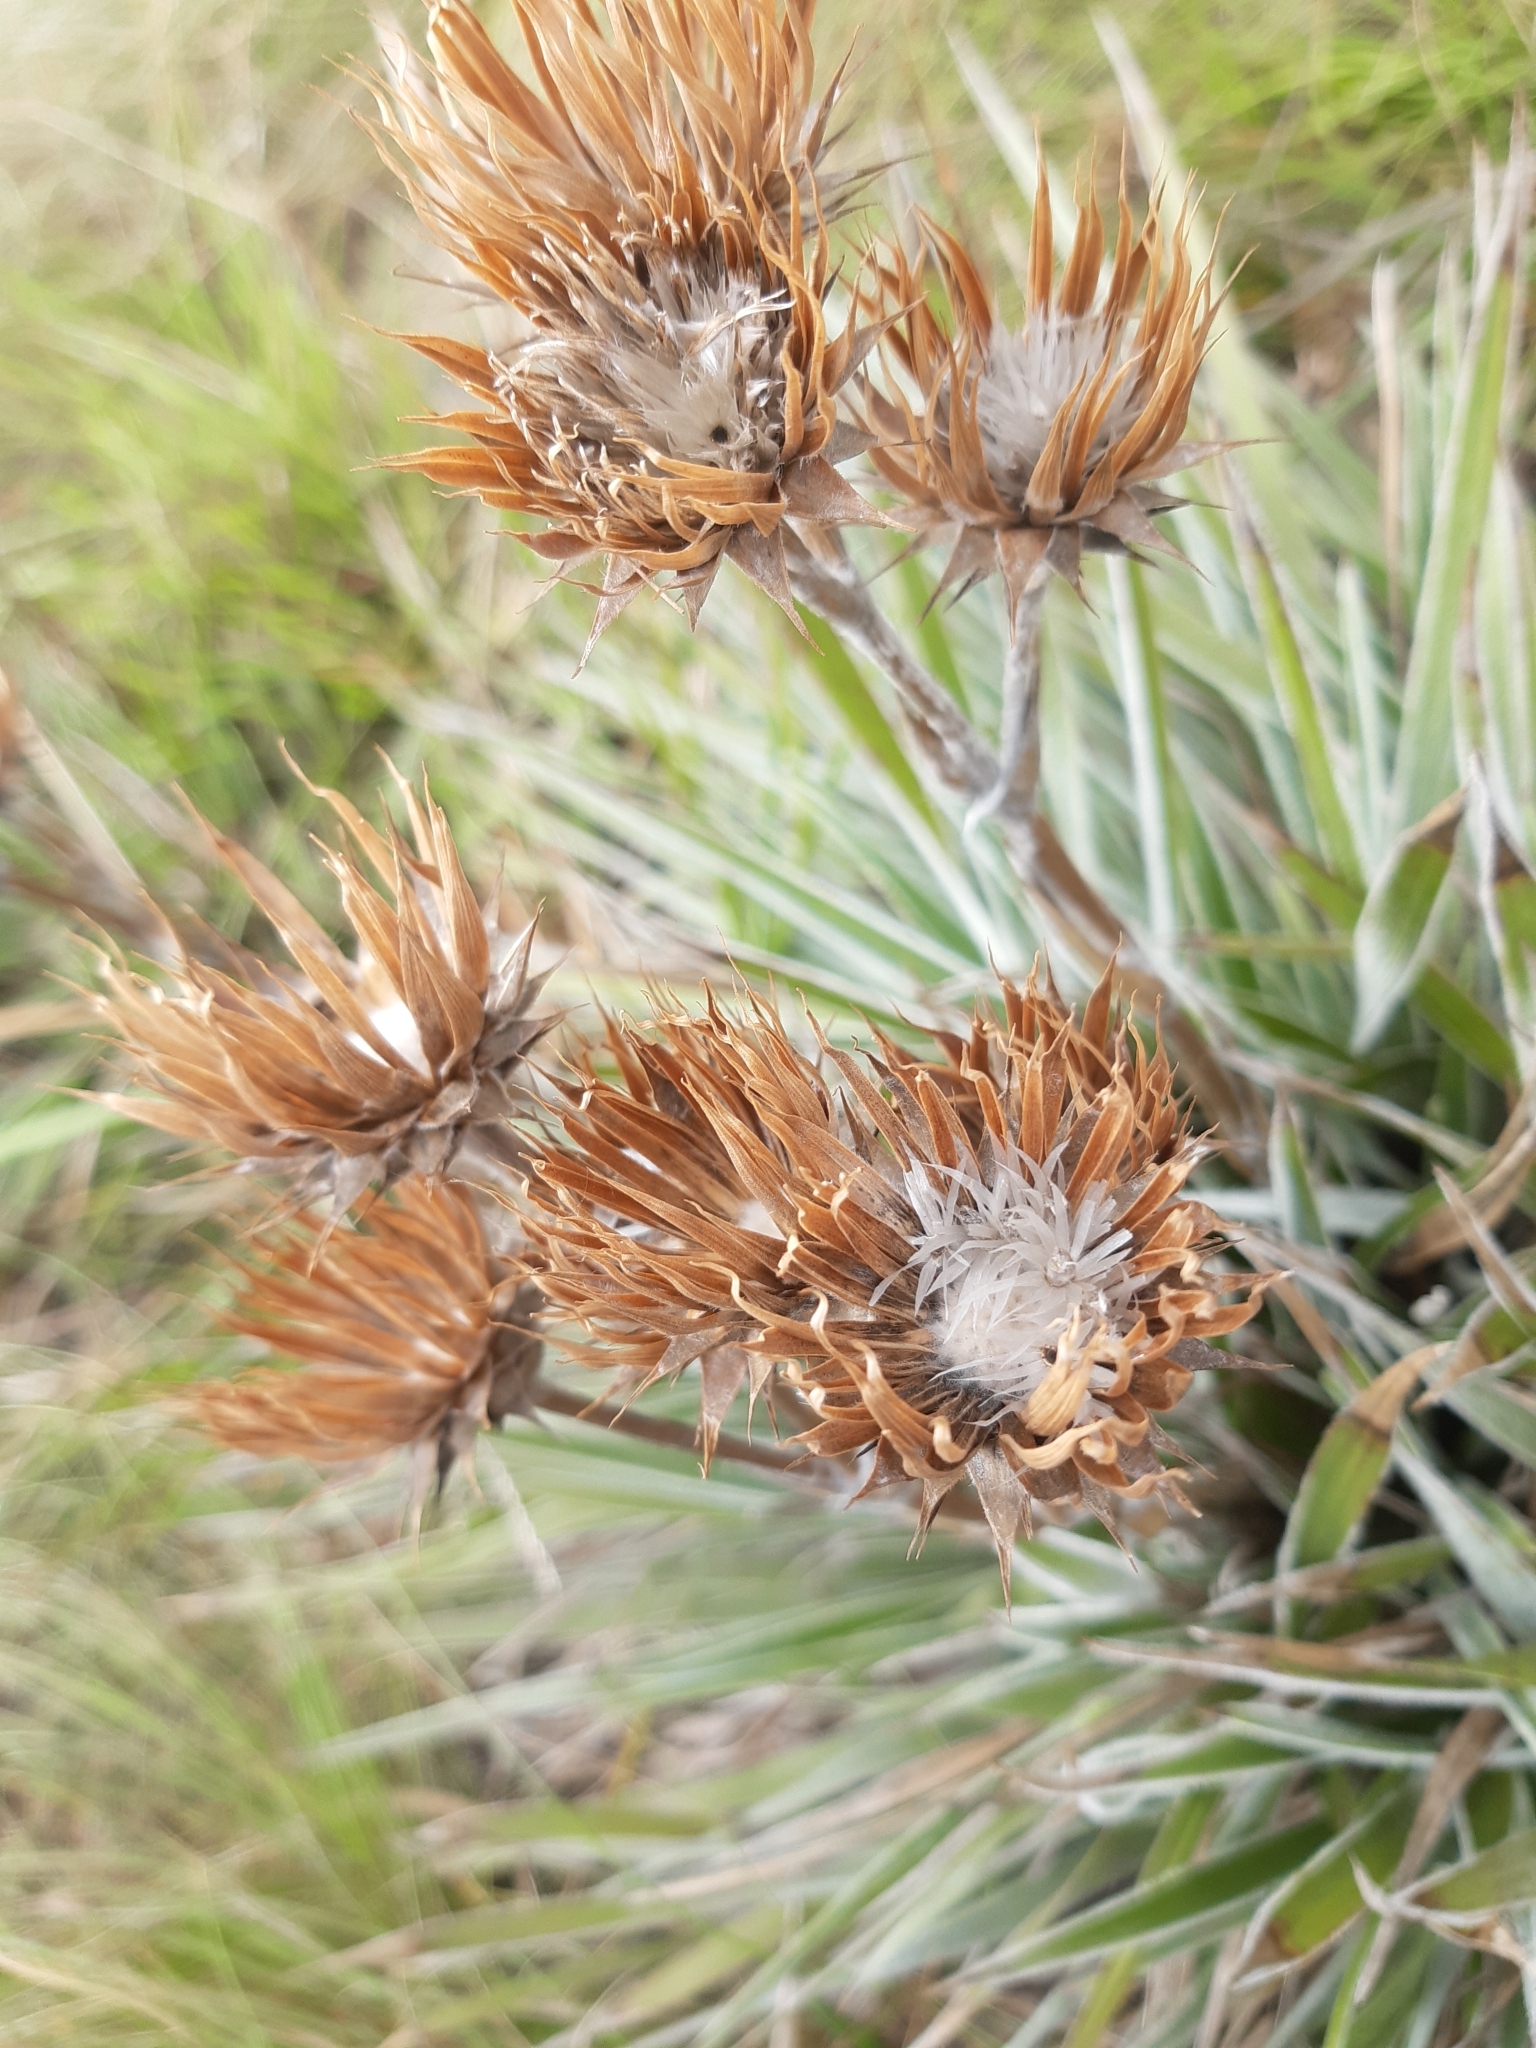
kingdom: Plantae
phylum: Tracheophyta
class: Magnoliopsida
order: Asterales
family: Asteraceae
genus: Schlechtendalia
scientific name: Schlechtendalia luzulifolia
